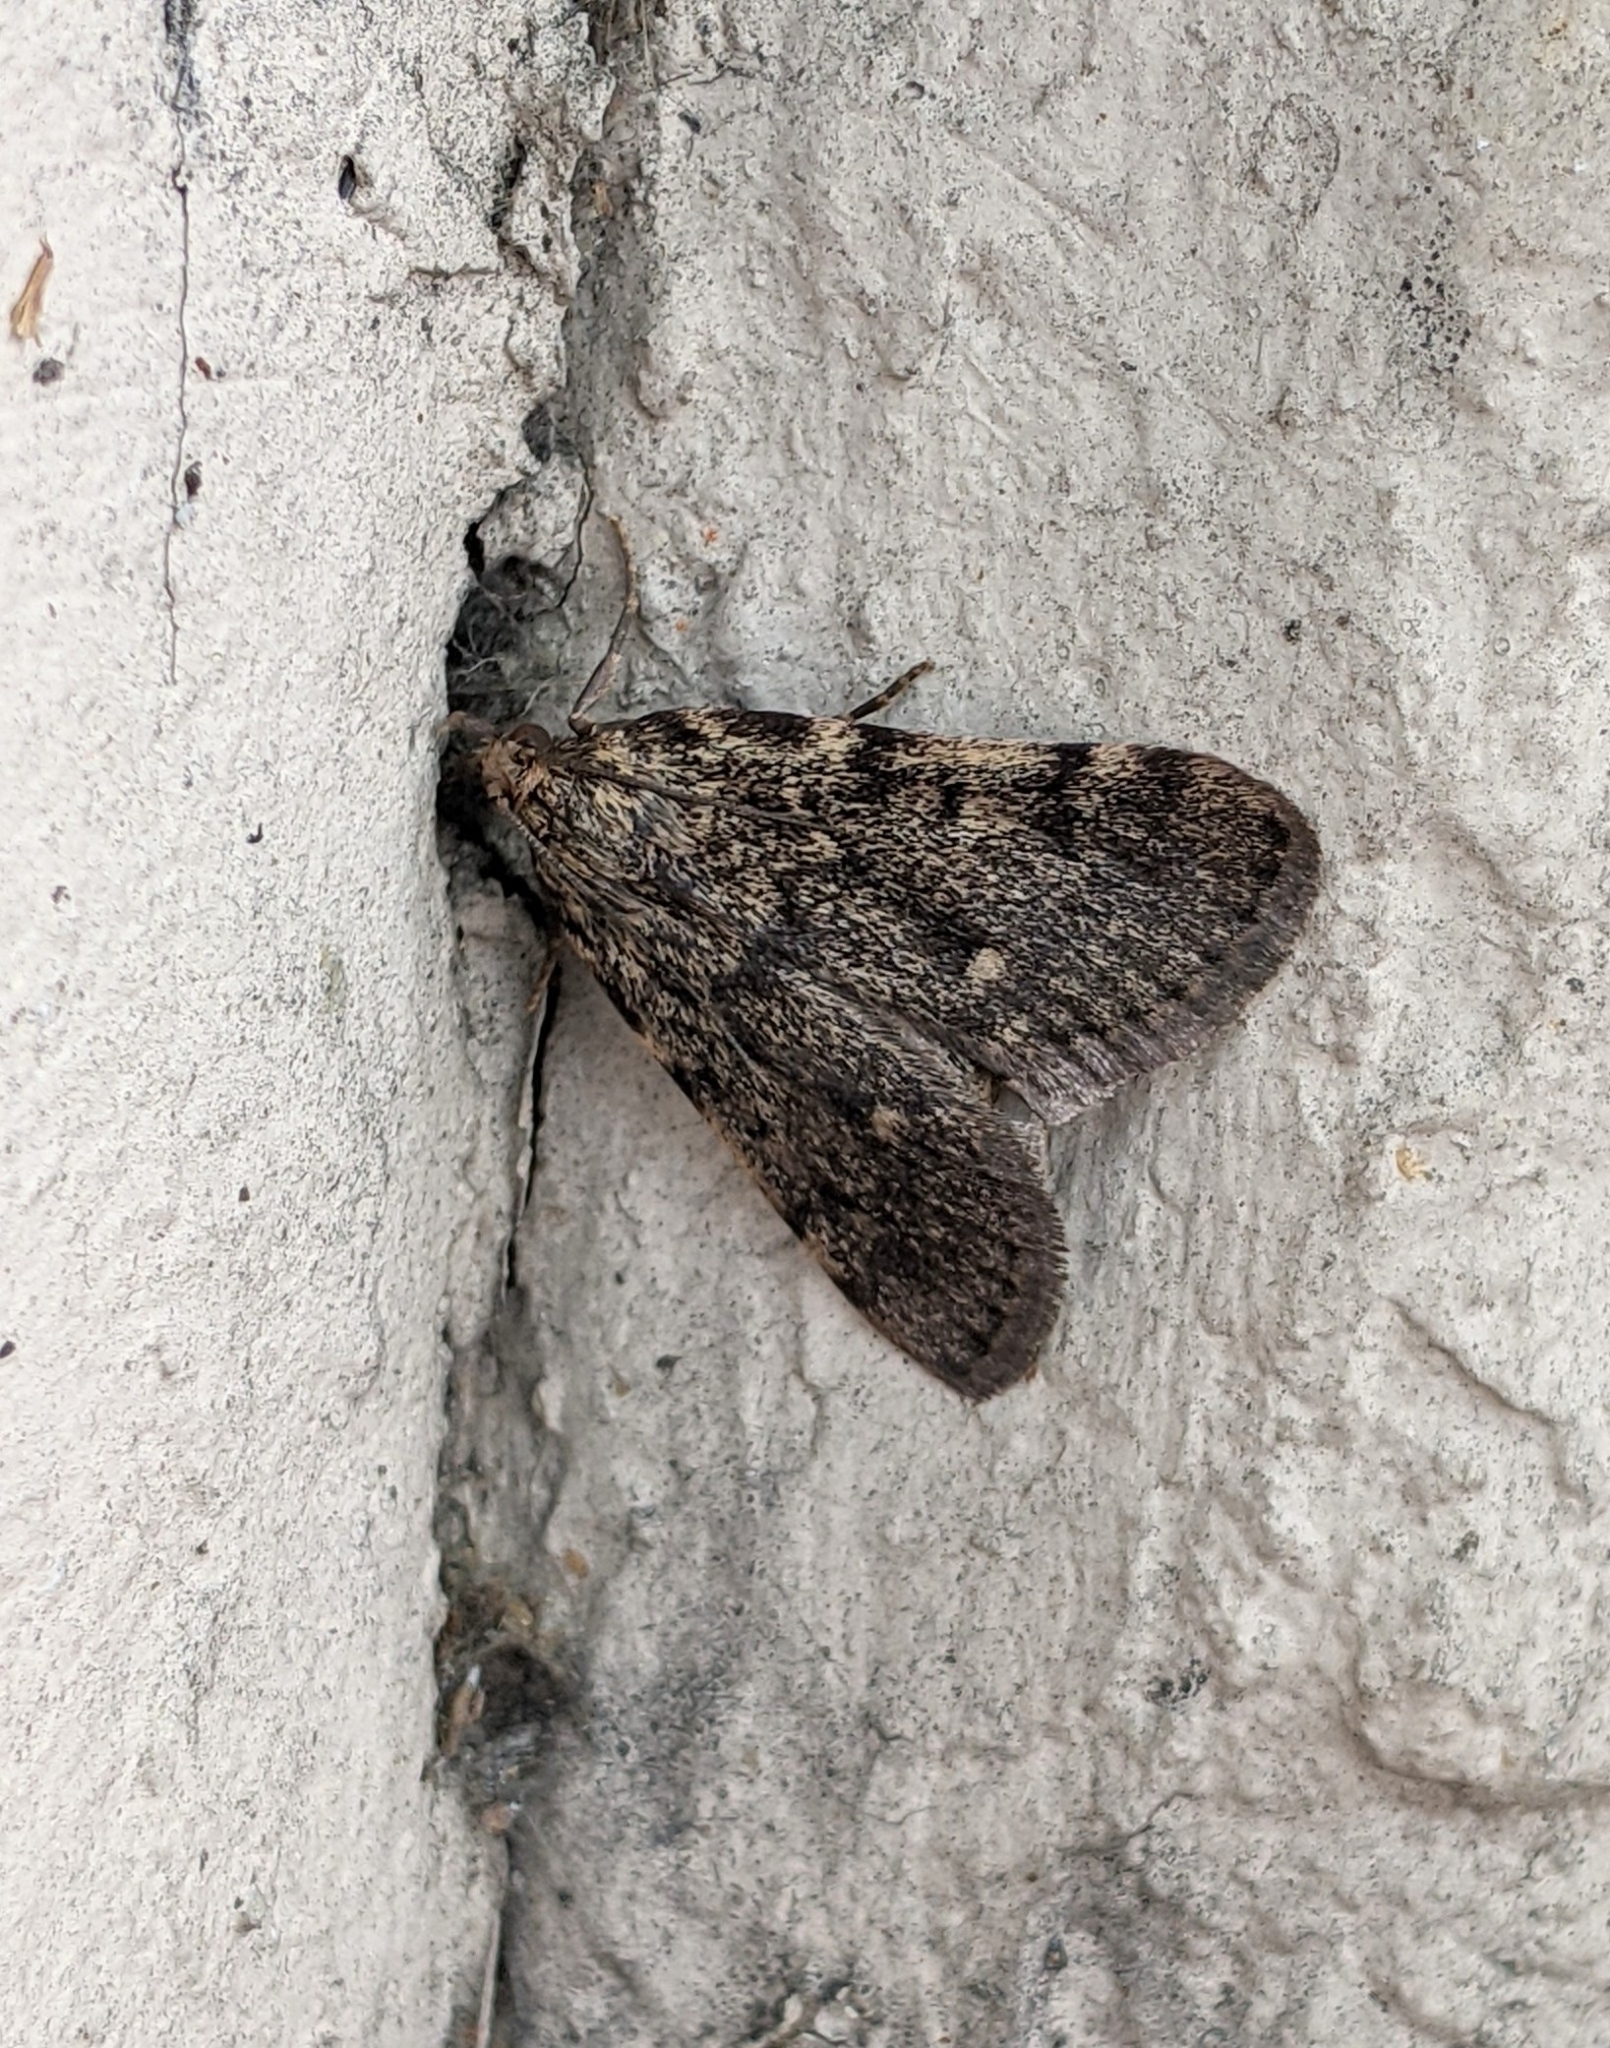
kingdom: Animalia
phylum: Arthropoda
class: Insecta
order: Lepidoptera
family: Pyralidae
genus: Aglossa
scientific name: Aglossa pinguinalis
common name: Large tabby
